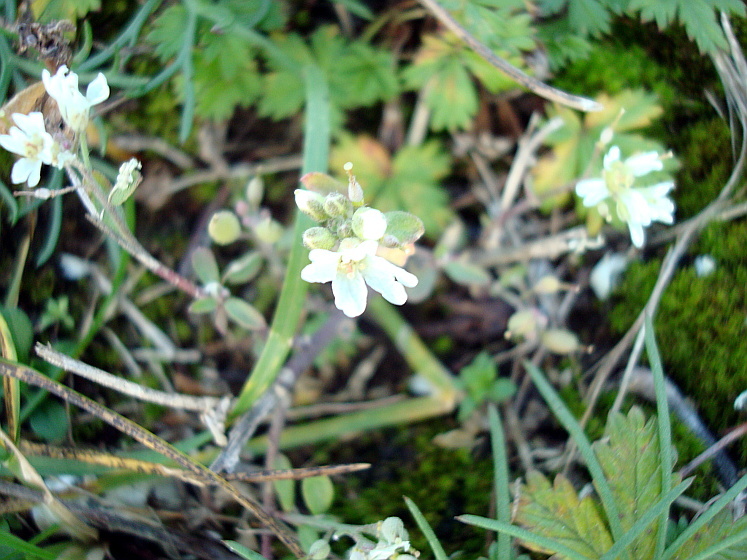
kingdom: Plantae
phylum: Tracheophyta
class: Magnoliopsida
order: Brassicales
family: Brassicaceae
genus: Berteroa
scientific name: Berteroa incana
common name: Hoary alison
